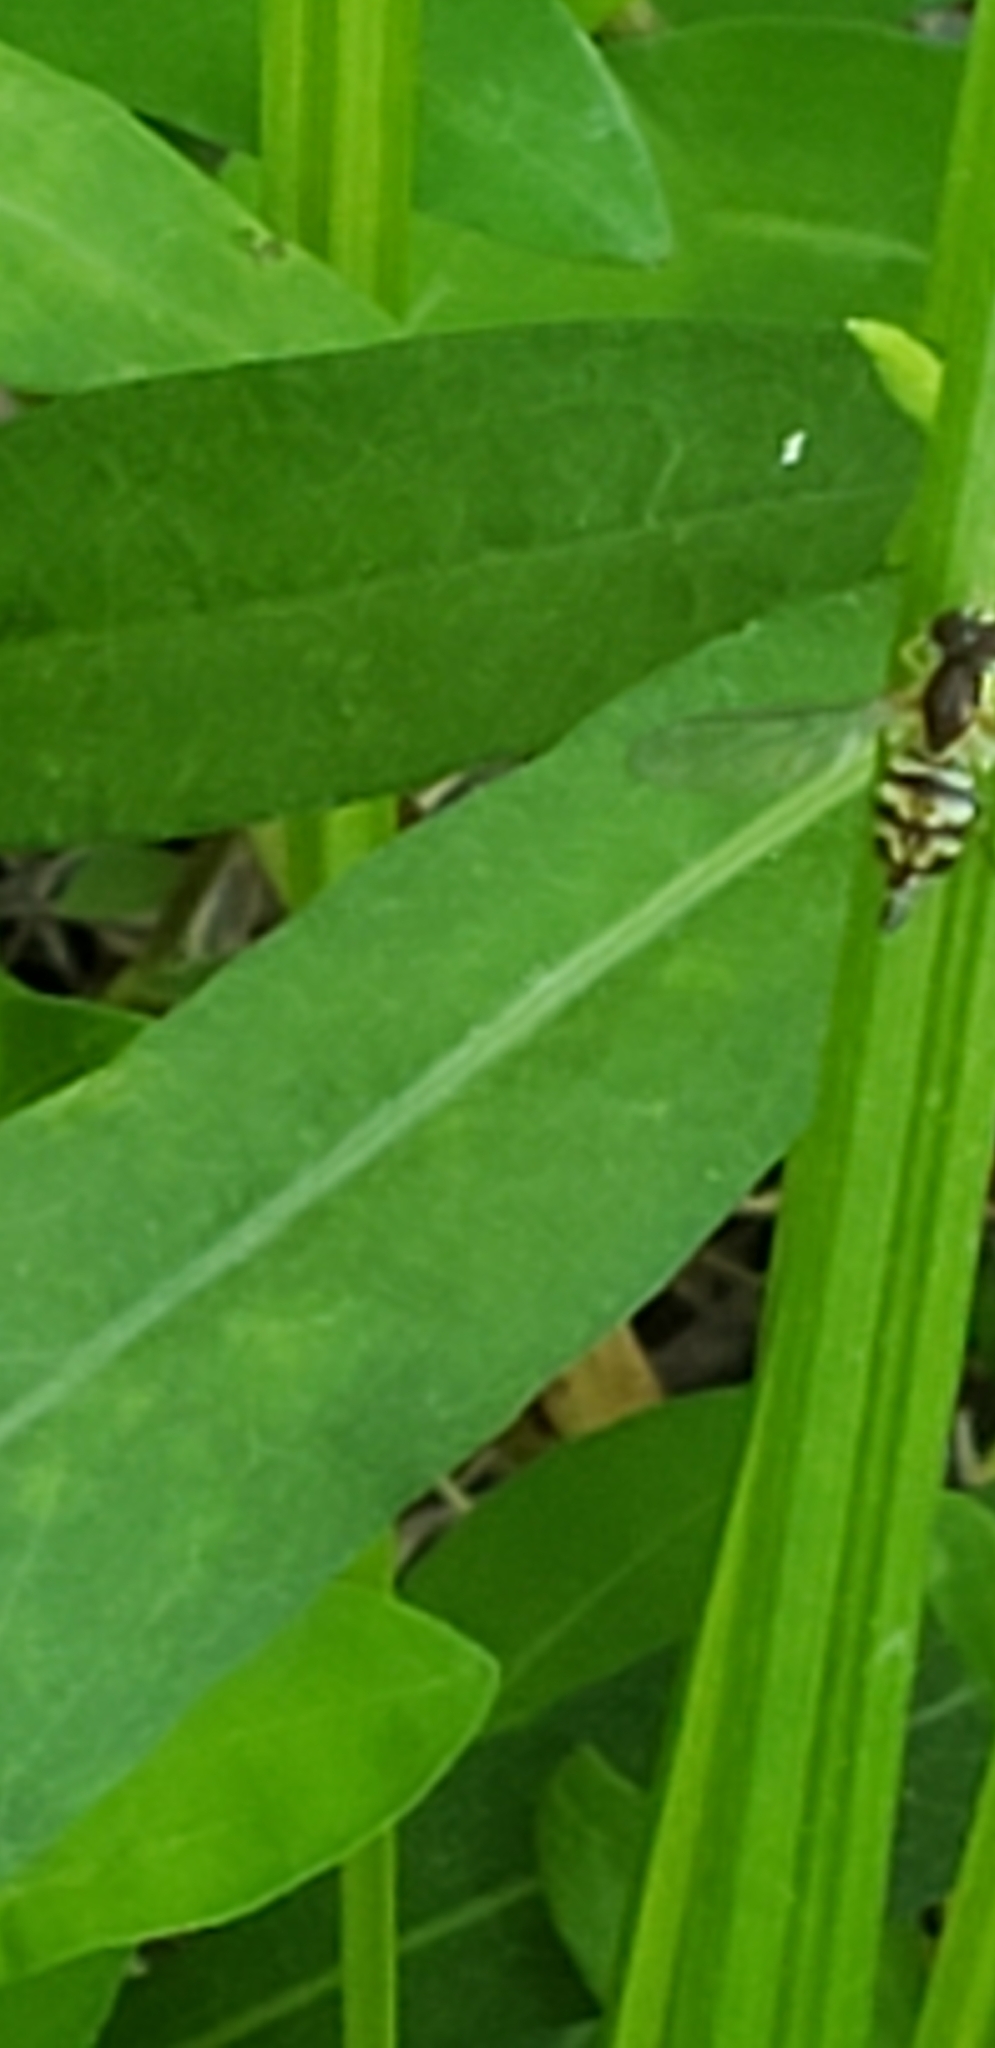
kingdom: Animalia
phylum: Arthropoda
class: Insecta
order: Diptera
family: Syrphidae
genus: Toxomerus
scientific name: Toxomerus geminatus
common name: Eastern calligrapher
